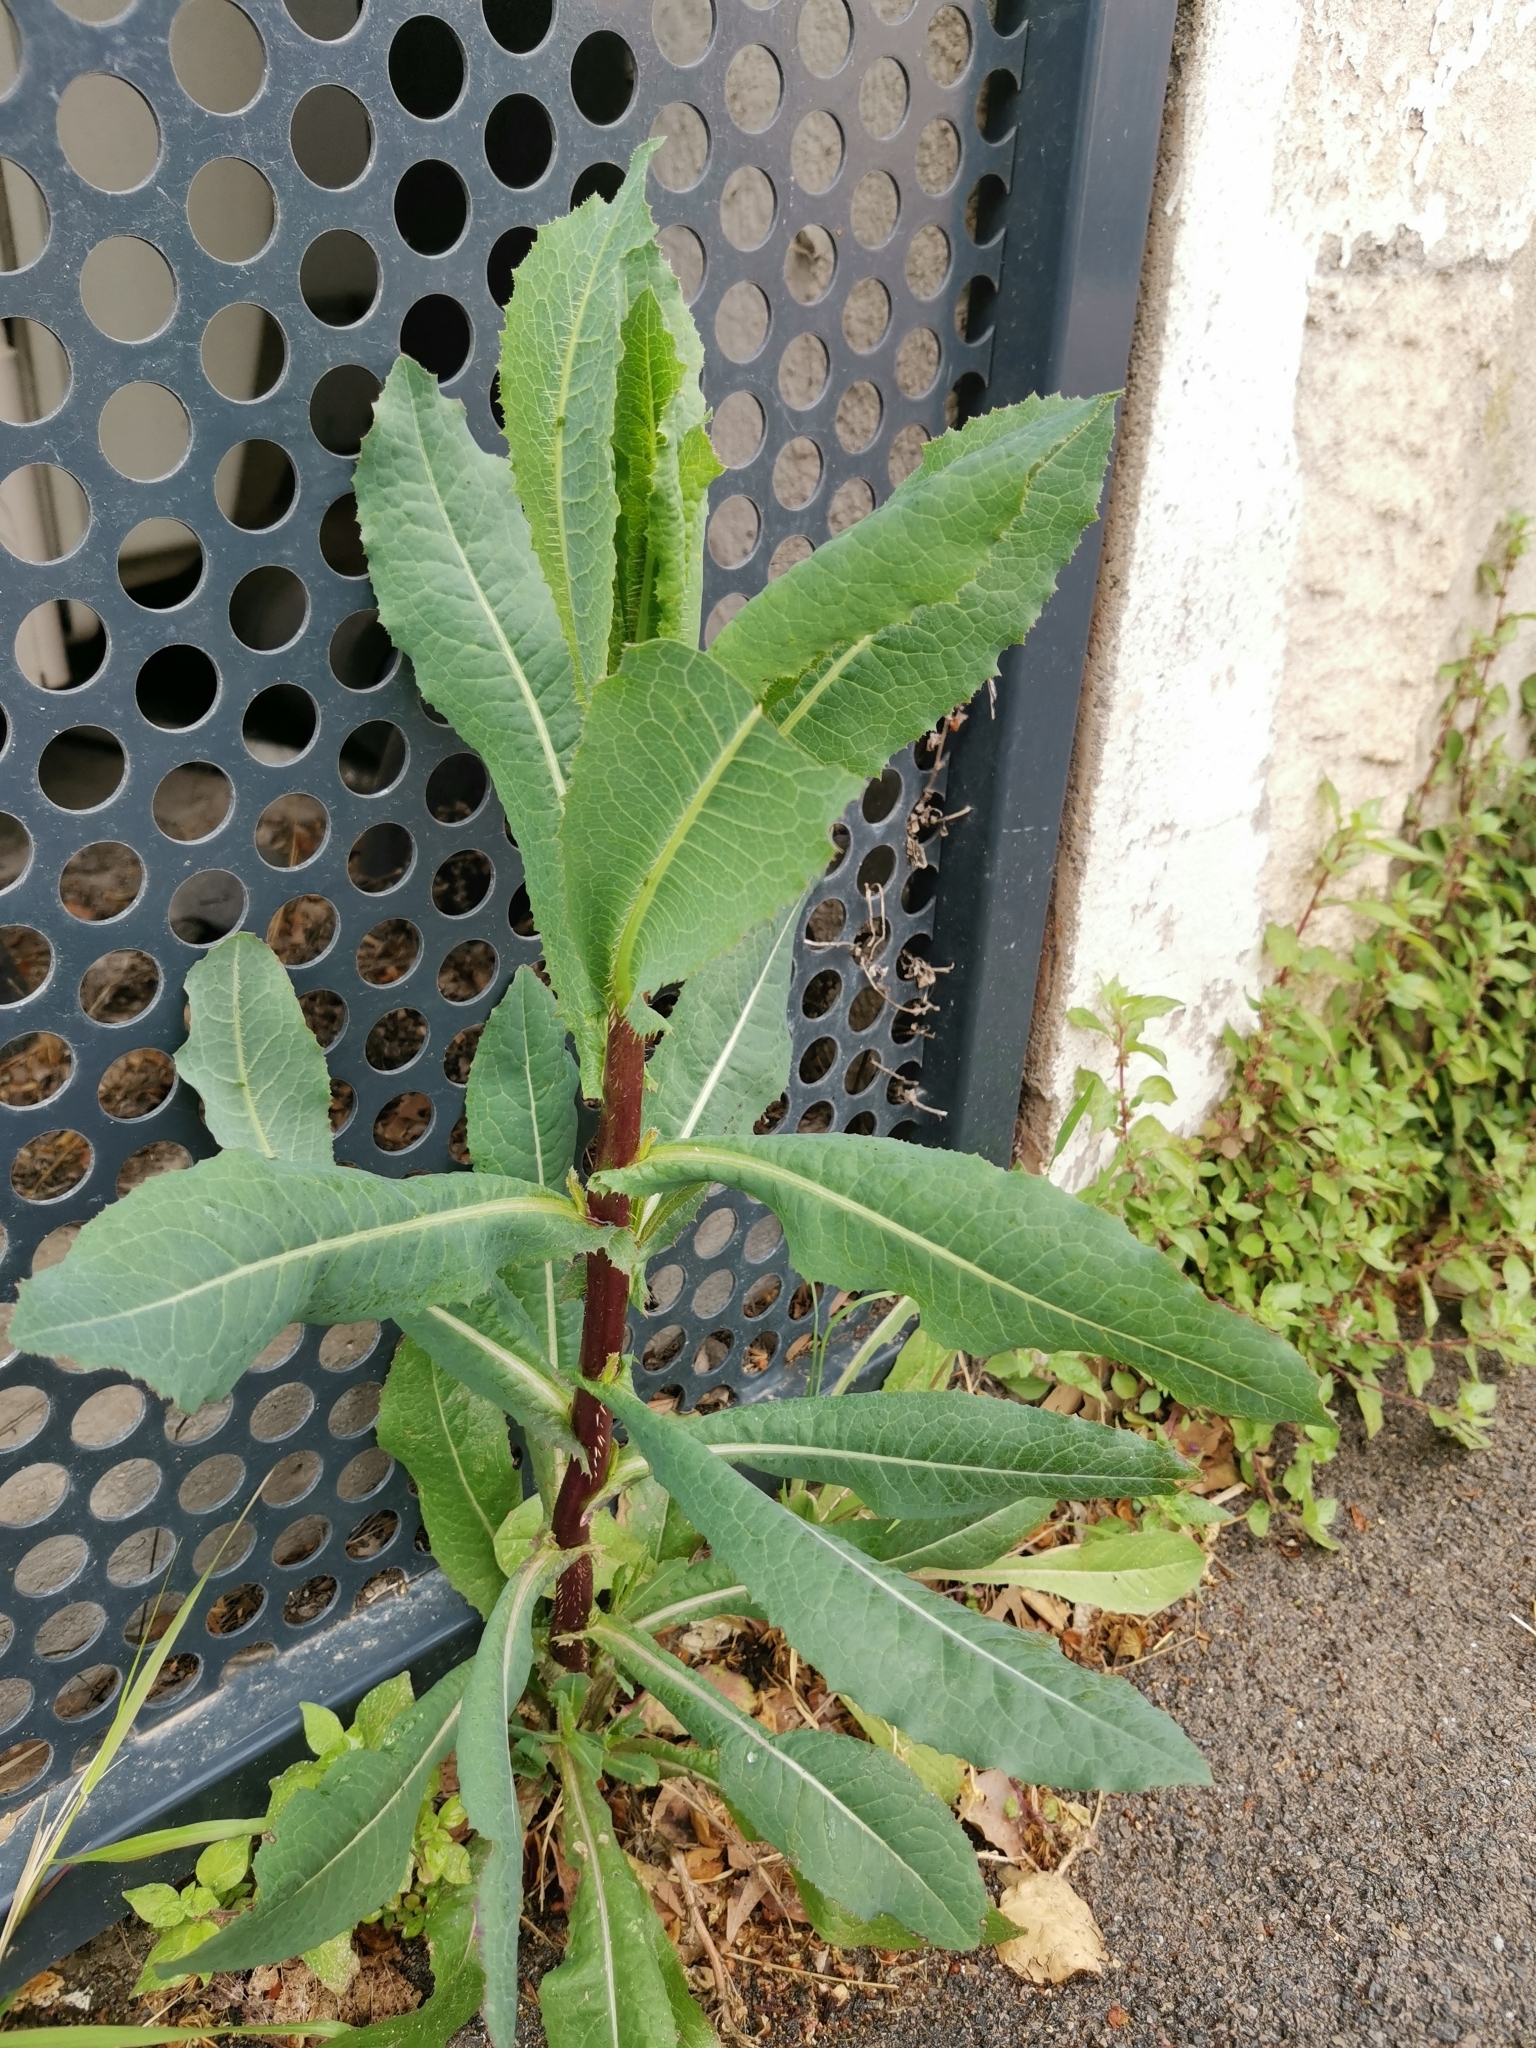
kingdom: Plantae
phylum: Tracheophyta
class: Magnoliopsida
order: Asterales
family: Asteraceae
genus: Lactuca
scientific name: Lactuca serriola
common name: Prickly lettuce
